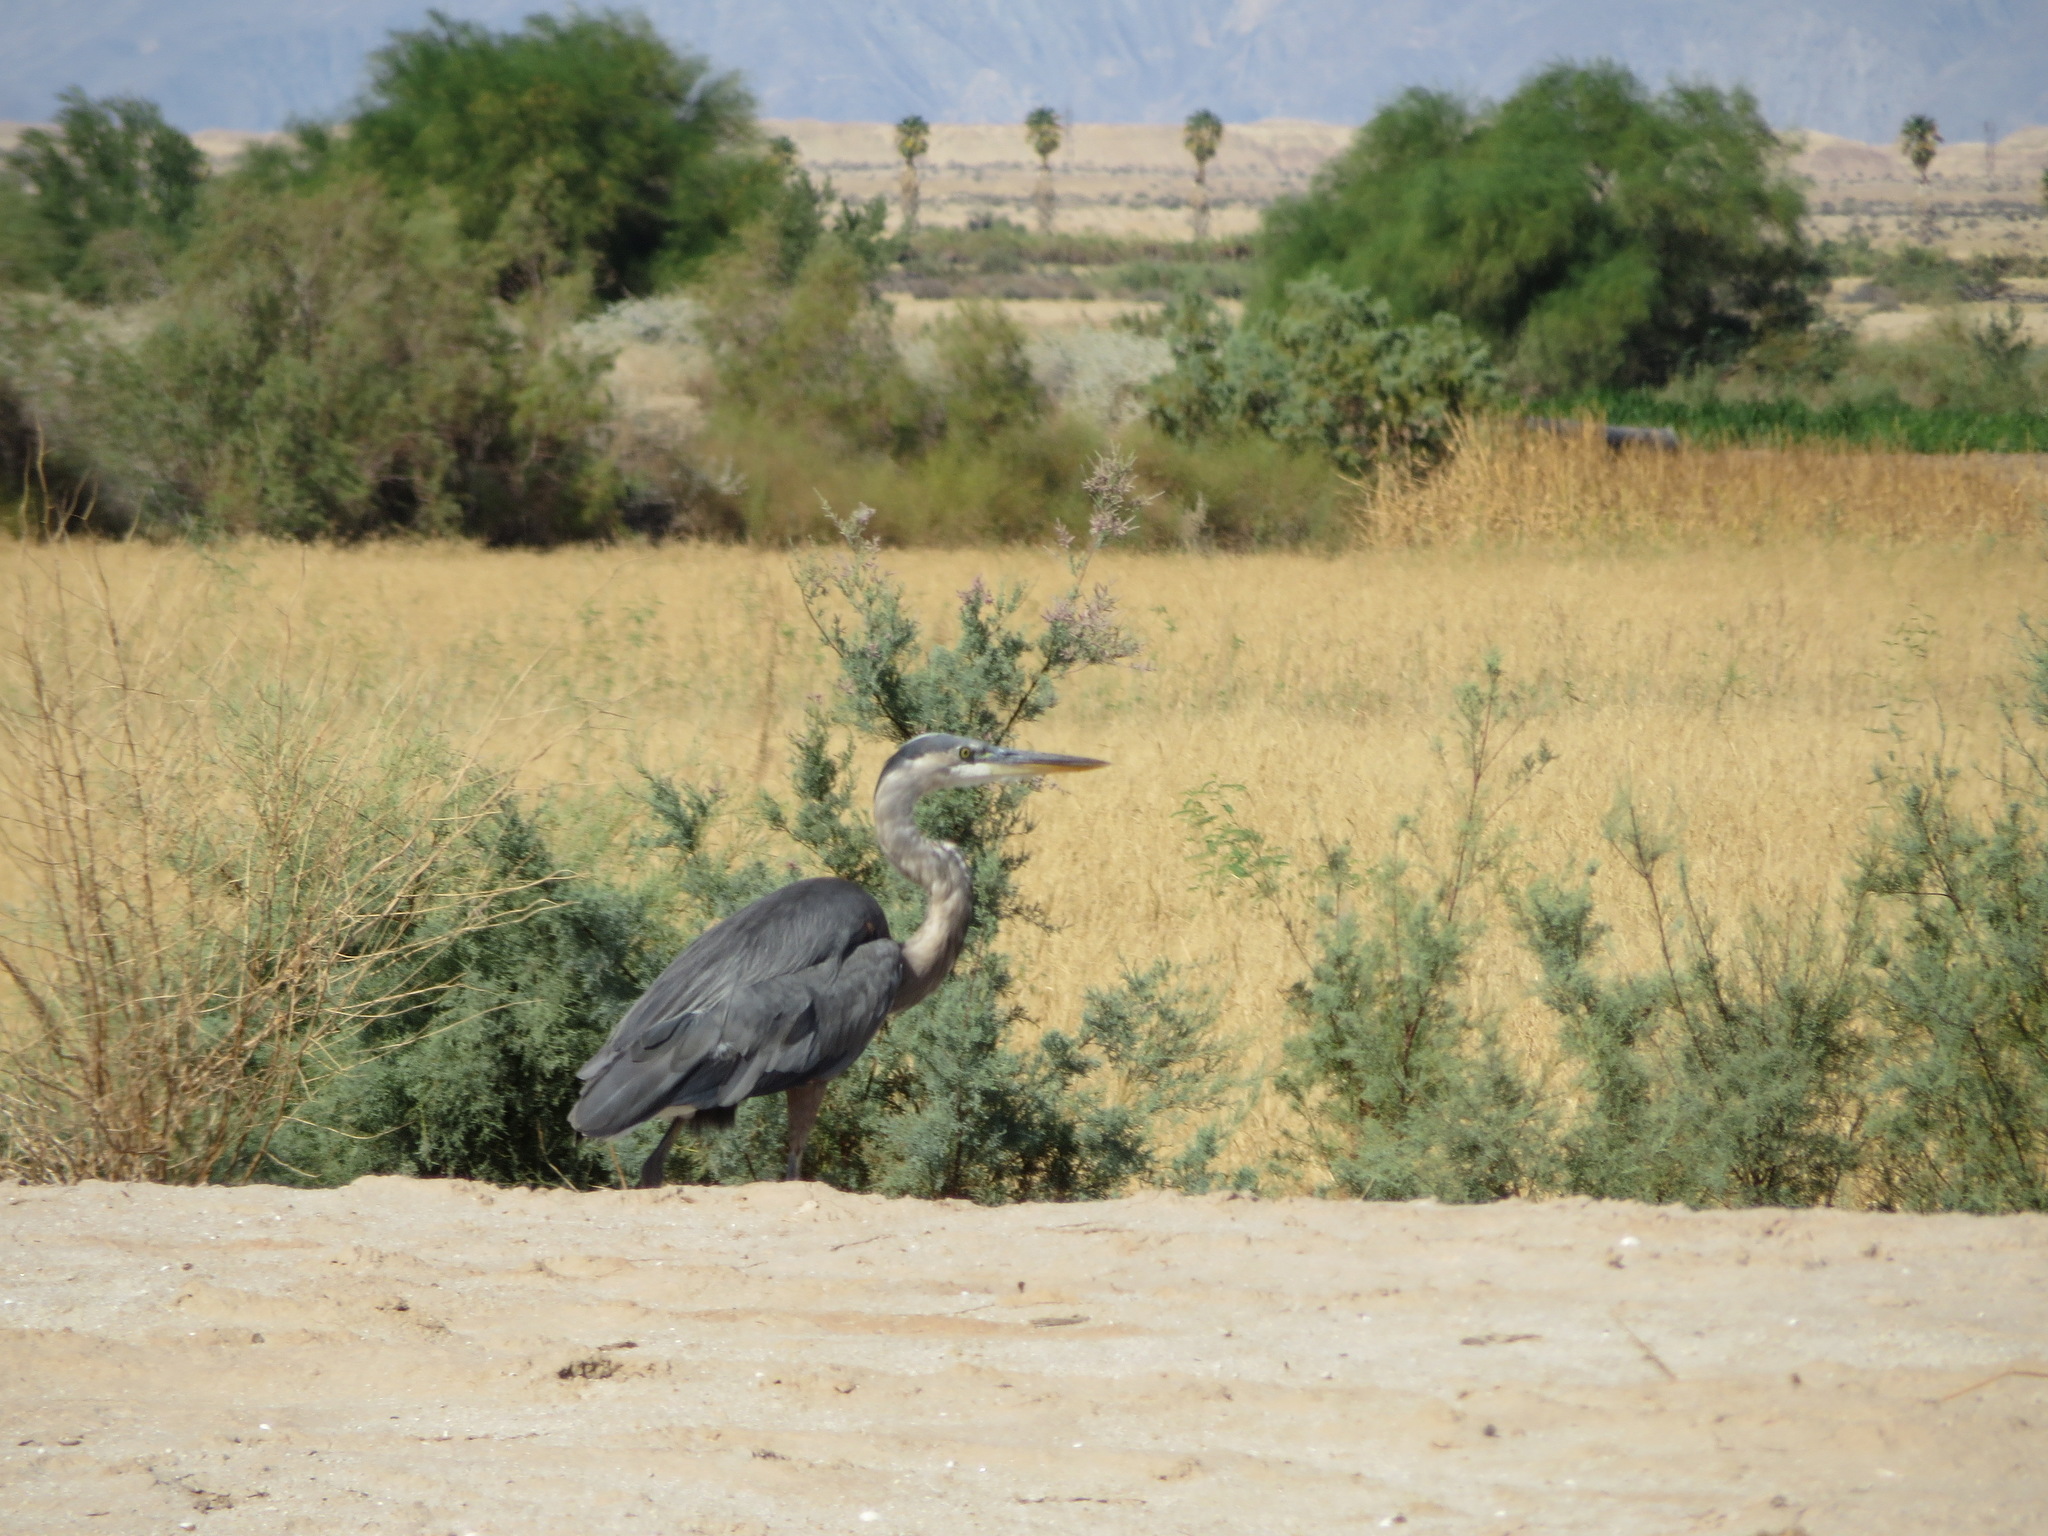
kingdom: Animalia
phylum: Chordata
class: Aves
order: Pelecaniformes
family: Ardeidae
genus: Ardea
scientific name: Ardea herodias
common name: Great blue heron
